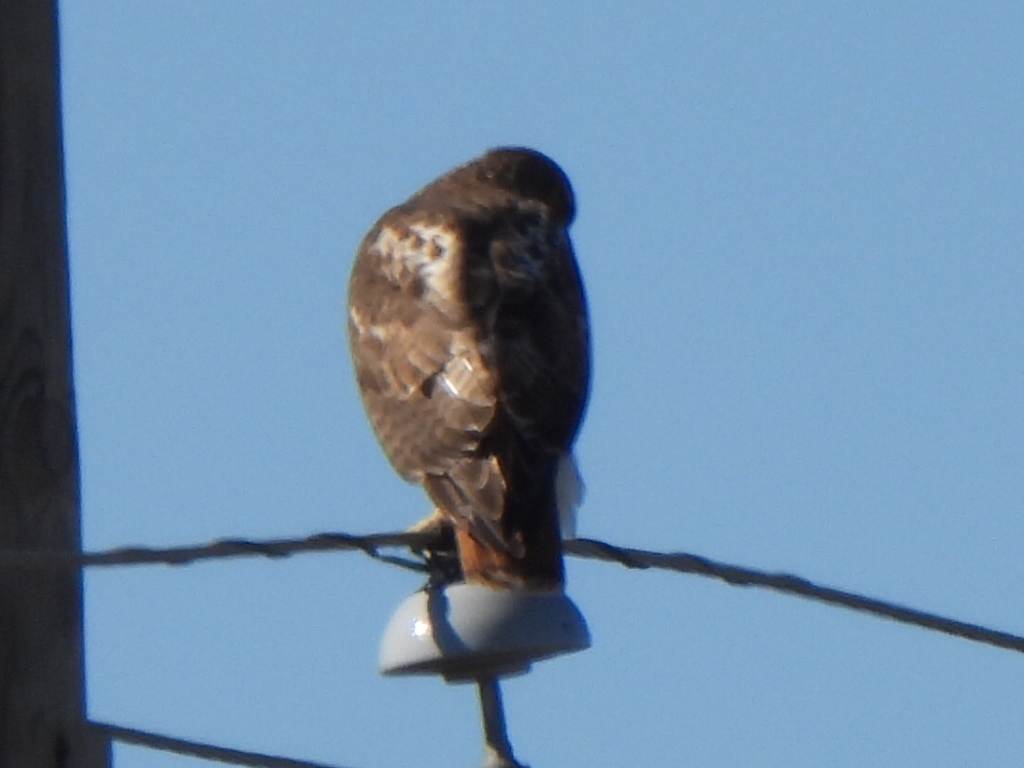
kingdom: Animalia
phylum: Chordata
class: Aves
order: Accipitriformes
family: Accipitridae
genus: Buteo
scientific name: Buteo jamaicensis
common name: Red-tailed hawk
